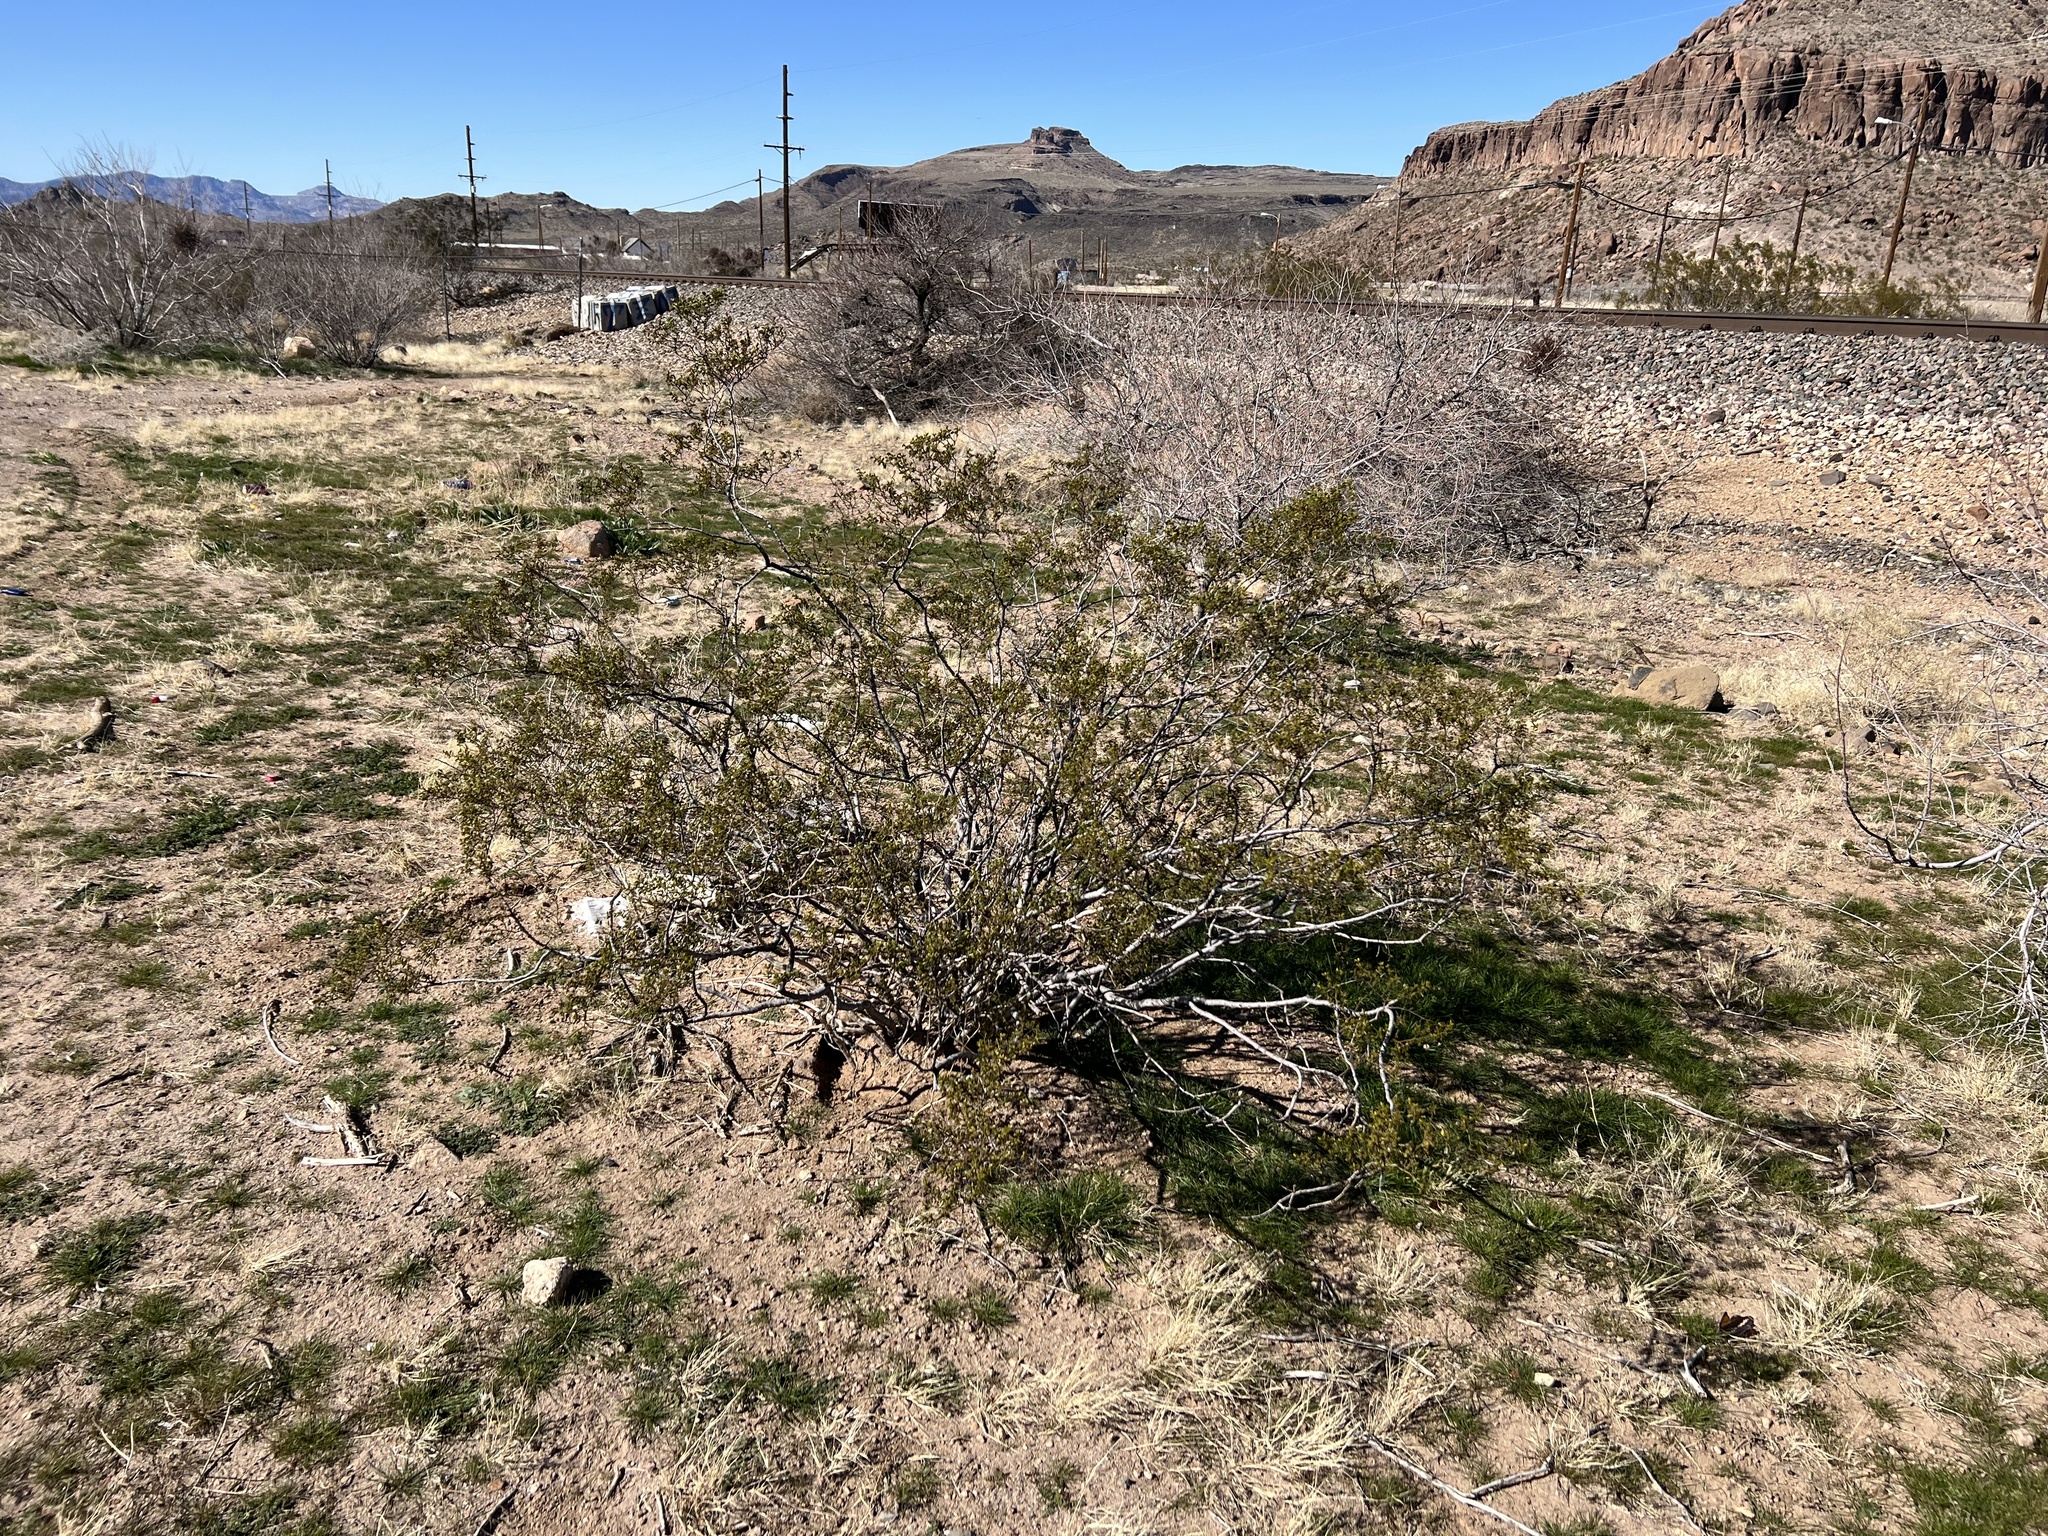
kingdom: Plantae
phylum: Tracheophyta
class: Magnoliopsida
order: Zygophyllales
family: Zygophyllaceae
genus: Larrea
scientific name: Larrea tridentata
